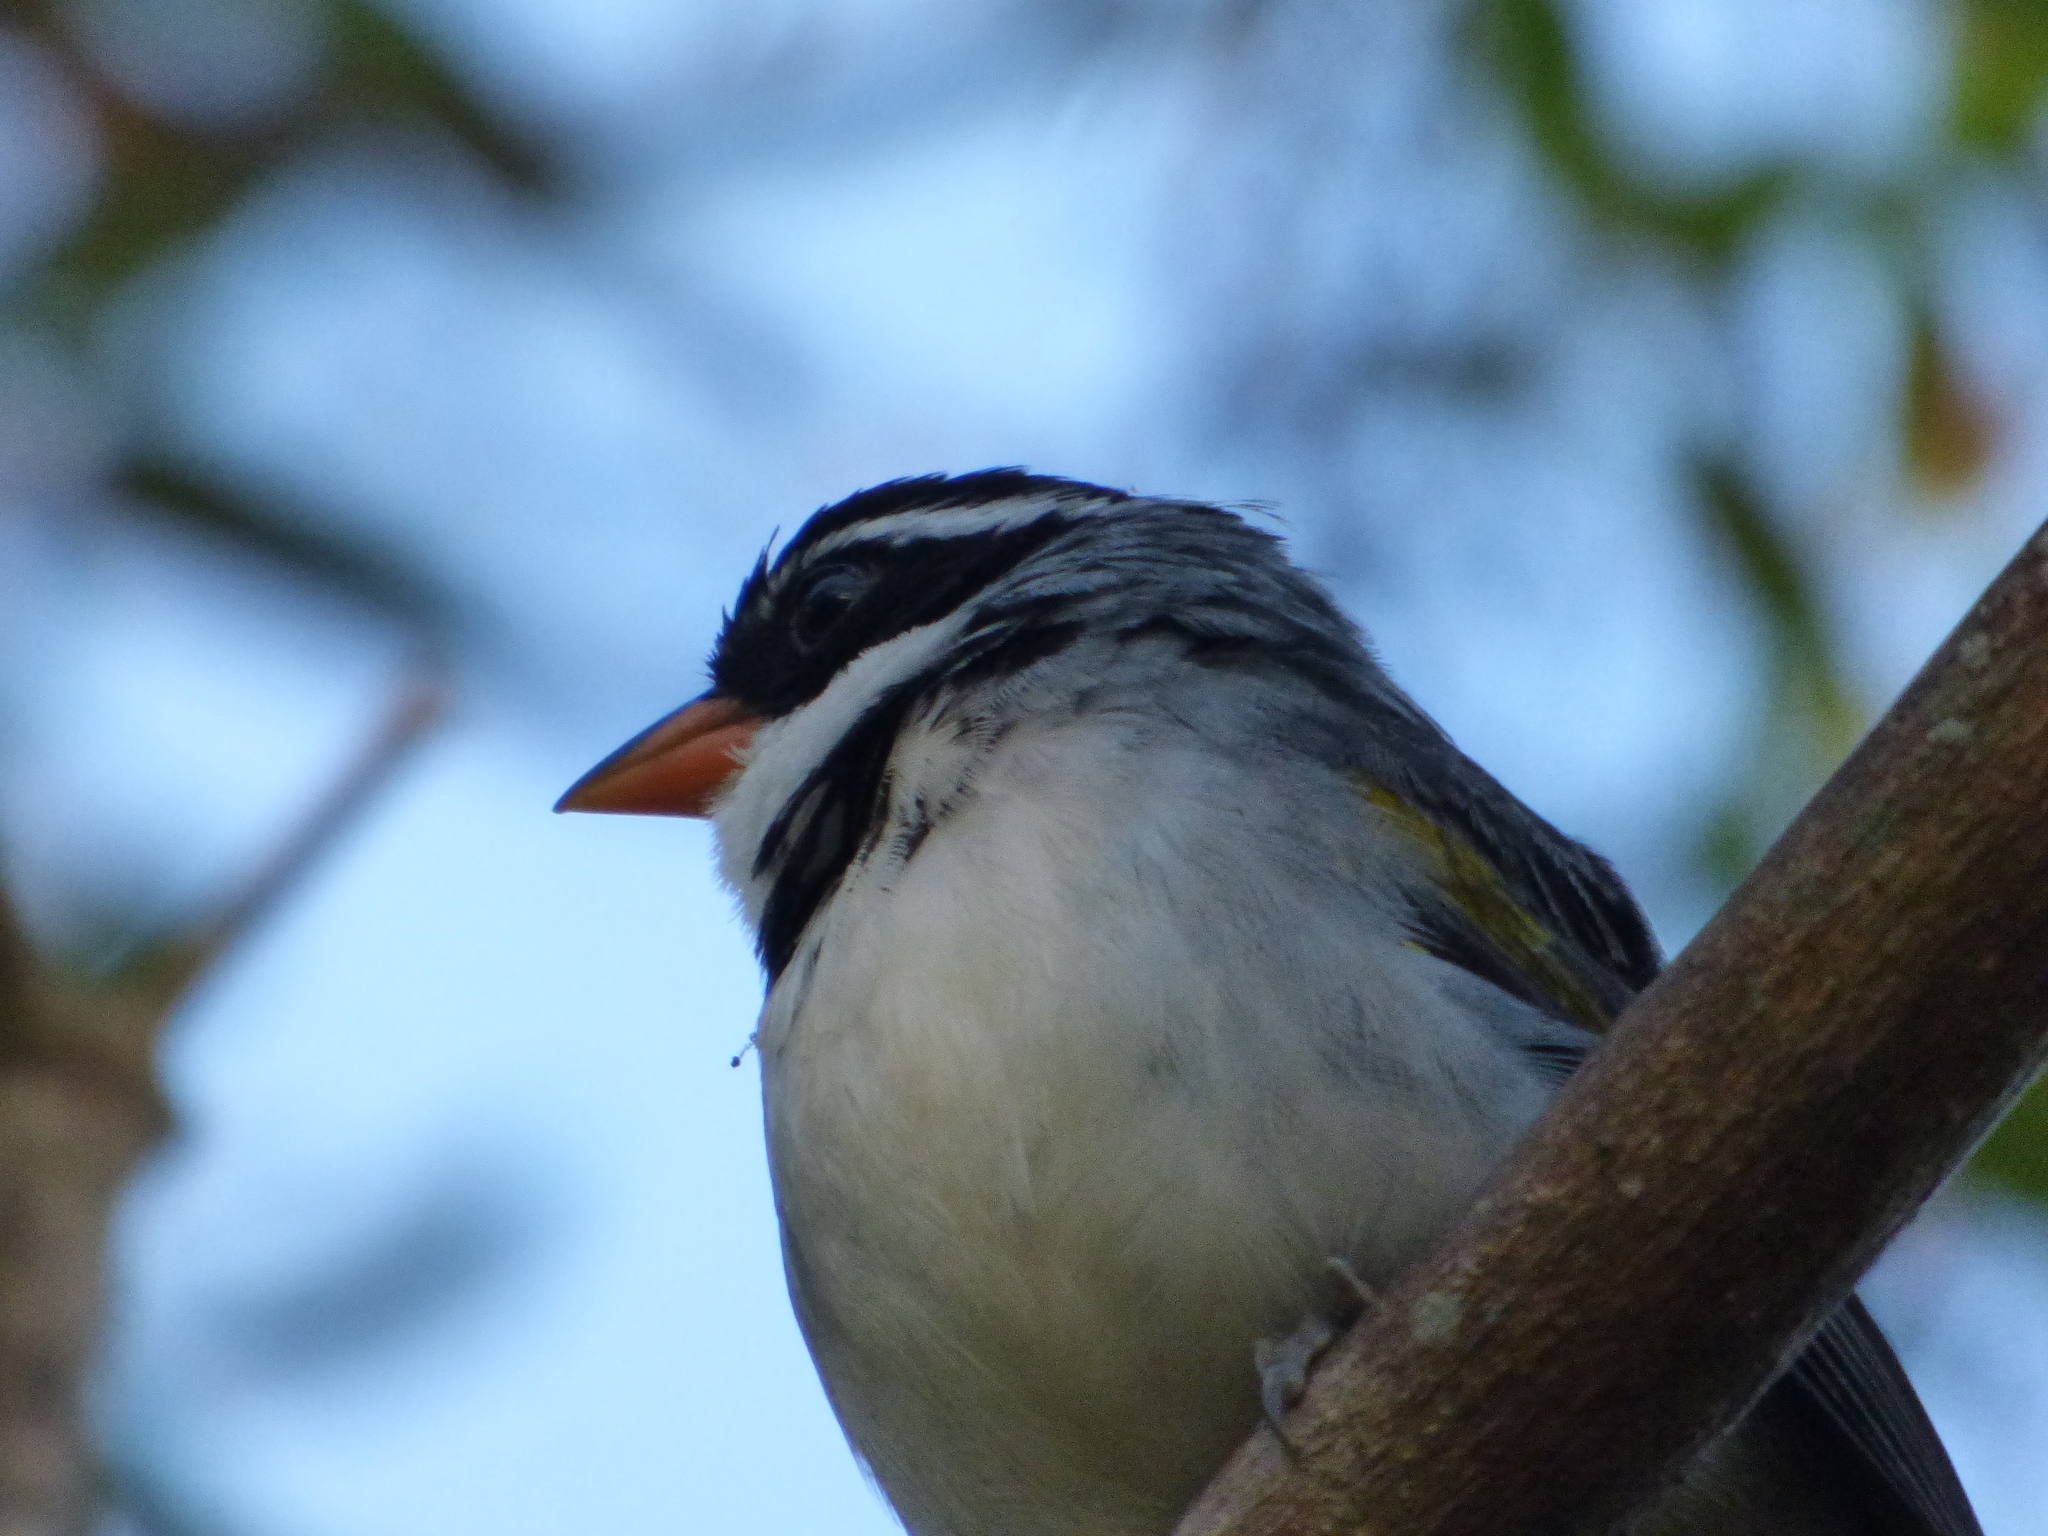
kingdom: Animalia
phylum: Chordata
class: Aves
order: Passeriformes
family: Passerellidae
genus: Arremon
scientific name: Arremon flavirostris
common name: Saffron-billed sparrow
